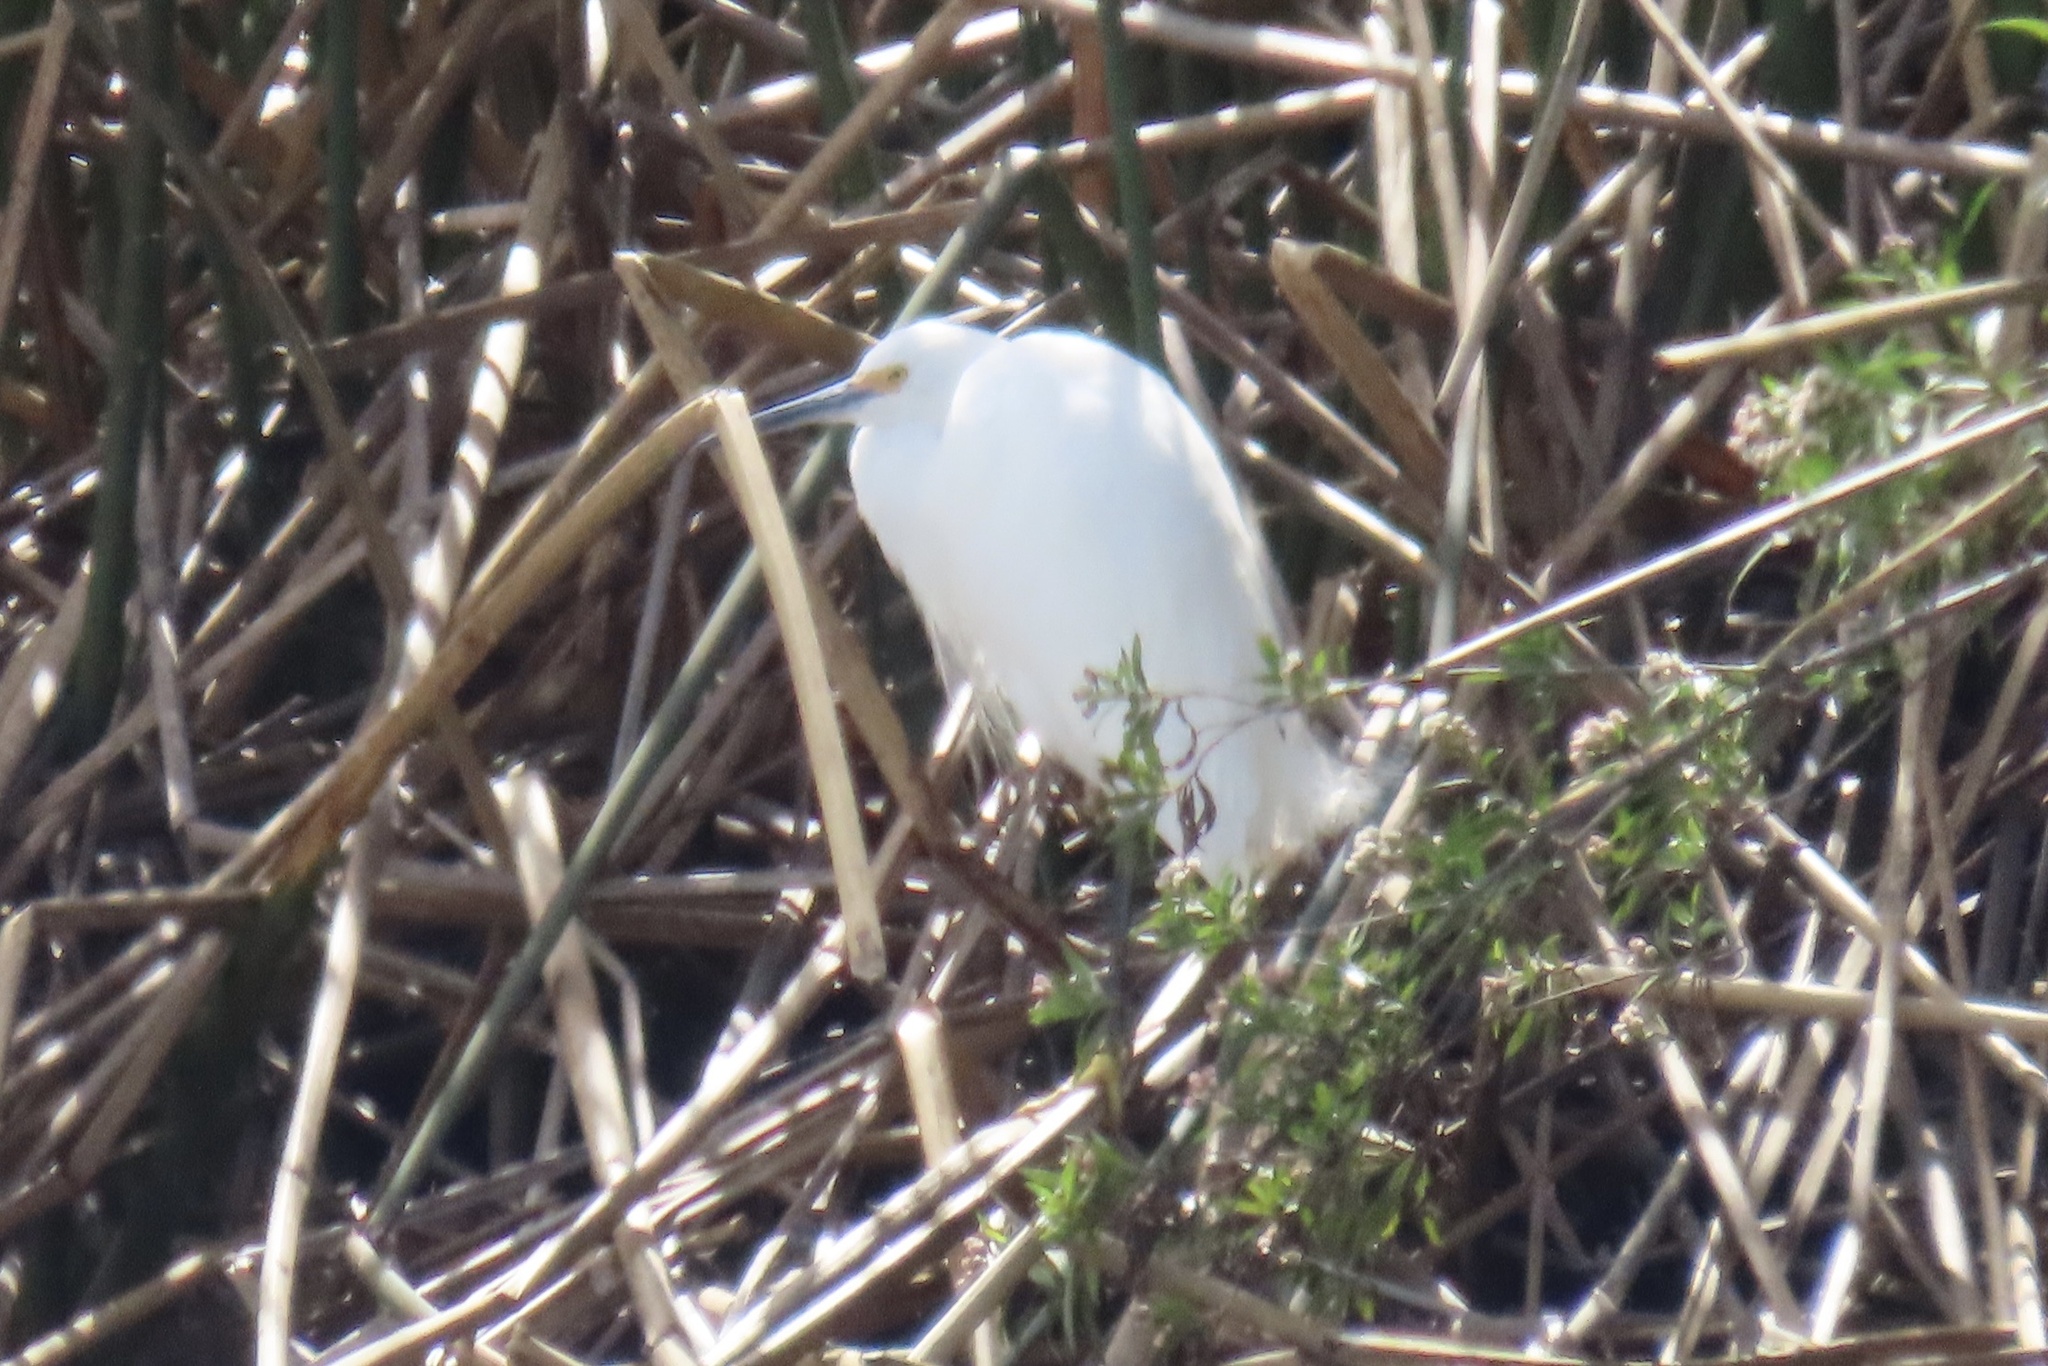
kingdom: Animalia
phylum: Chordata
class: Aves
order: Pelecaniformes
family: Ardeidae
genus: Egretta
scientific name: Egretta thula
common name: Snowy egret
